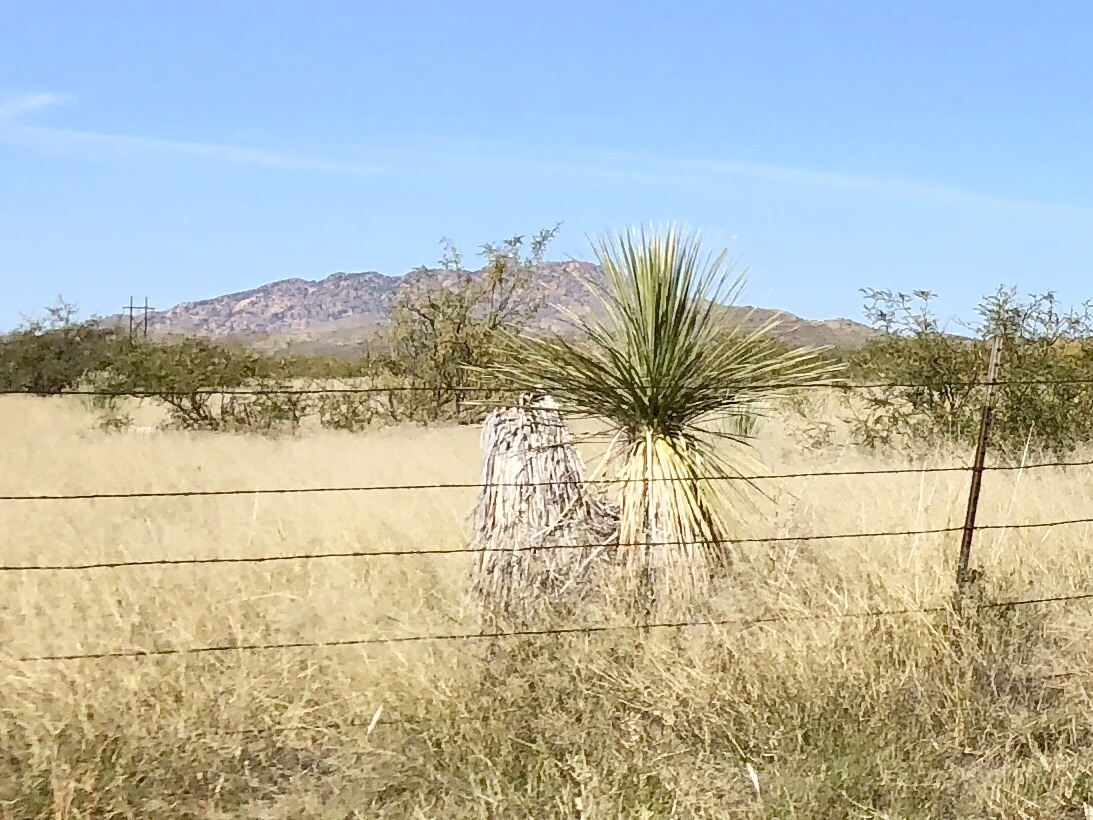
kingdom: Plantae
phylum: Tracheophyta
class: Liliopsida
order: Asparagales
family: Asparagaceae
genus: Yucca
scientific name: Yucca elata
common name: Palmella
